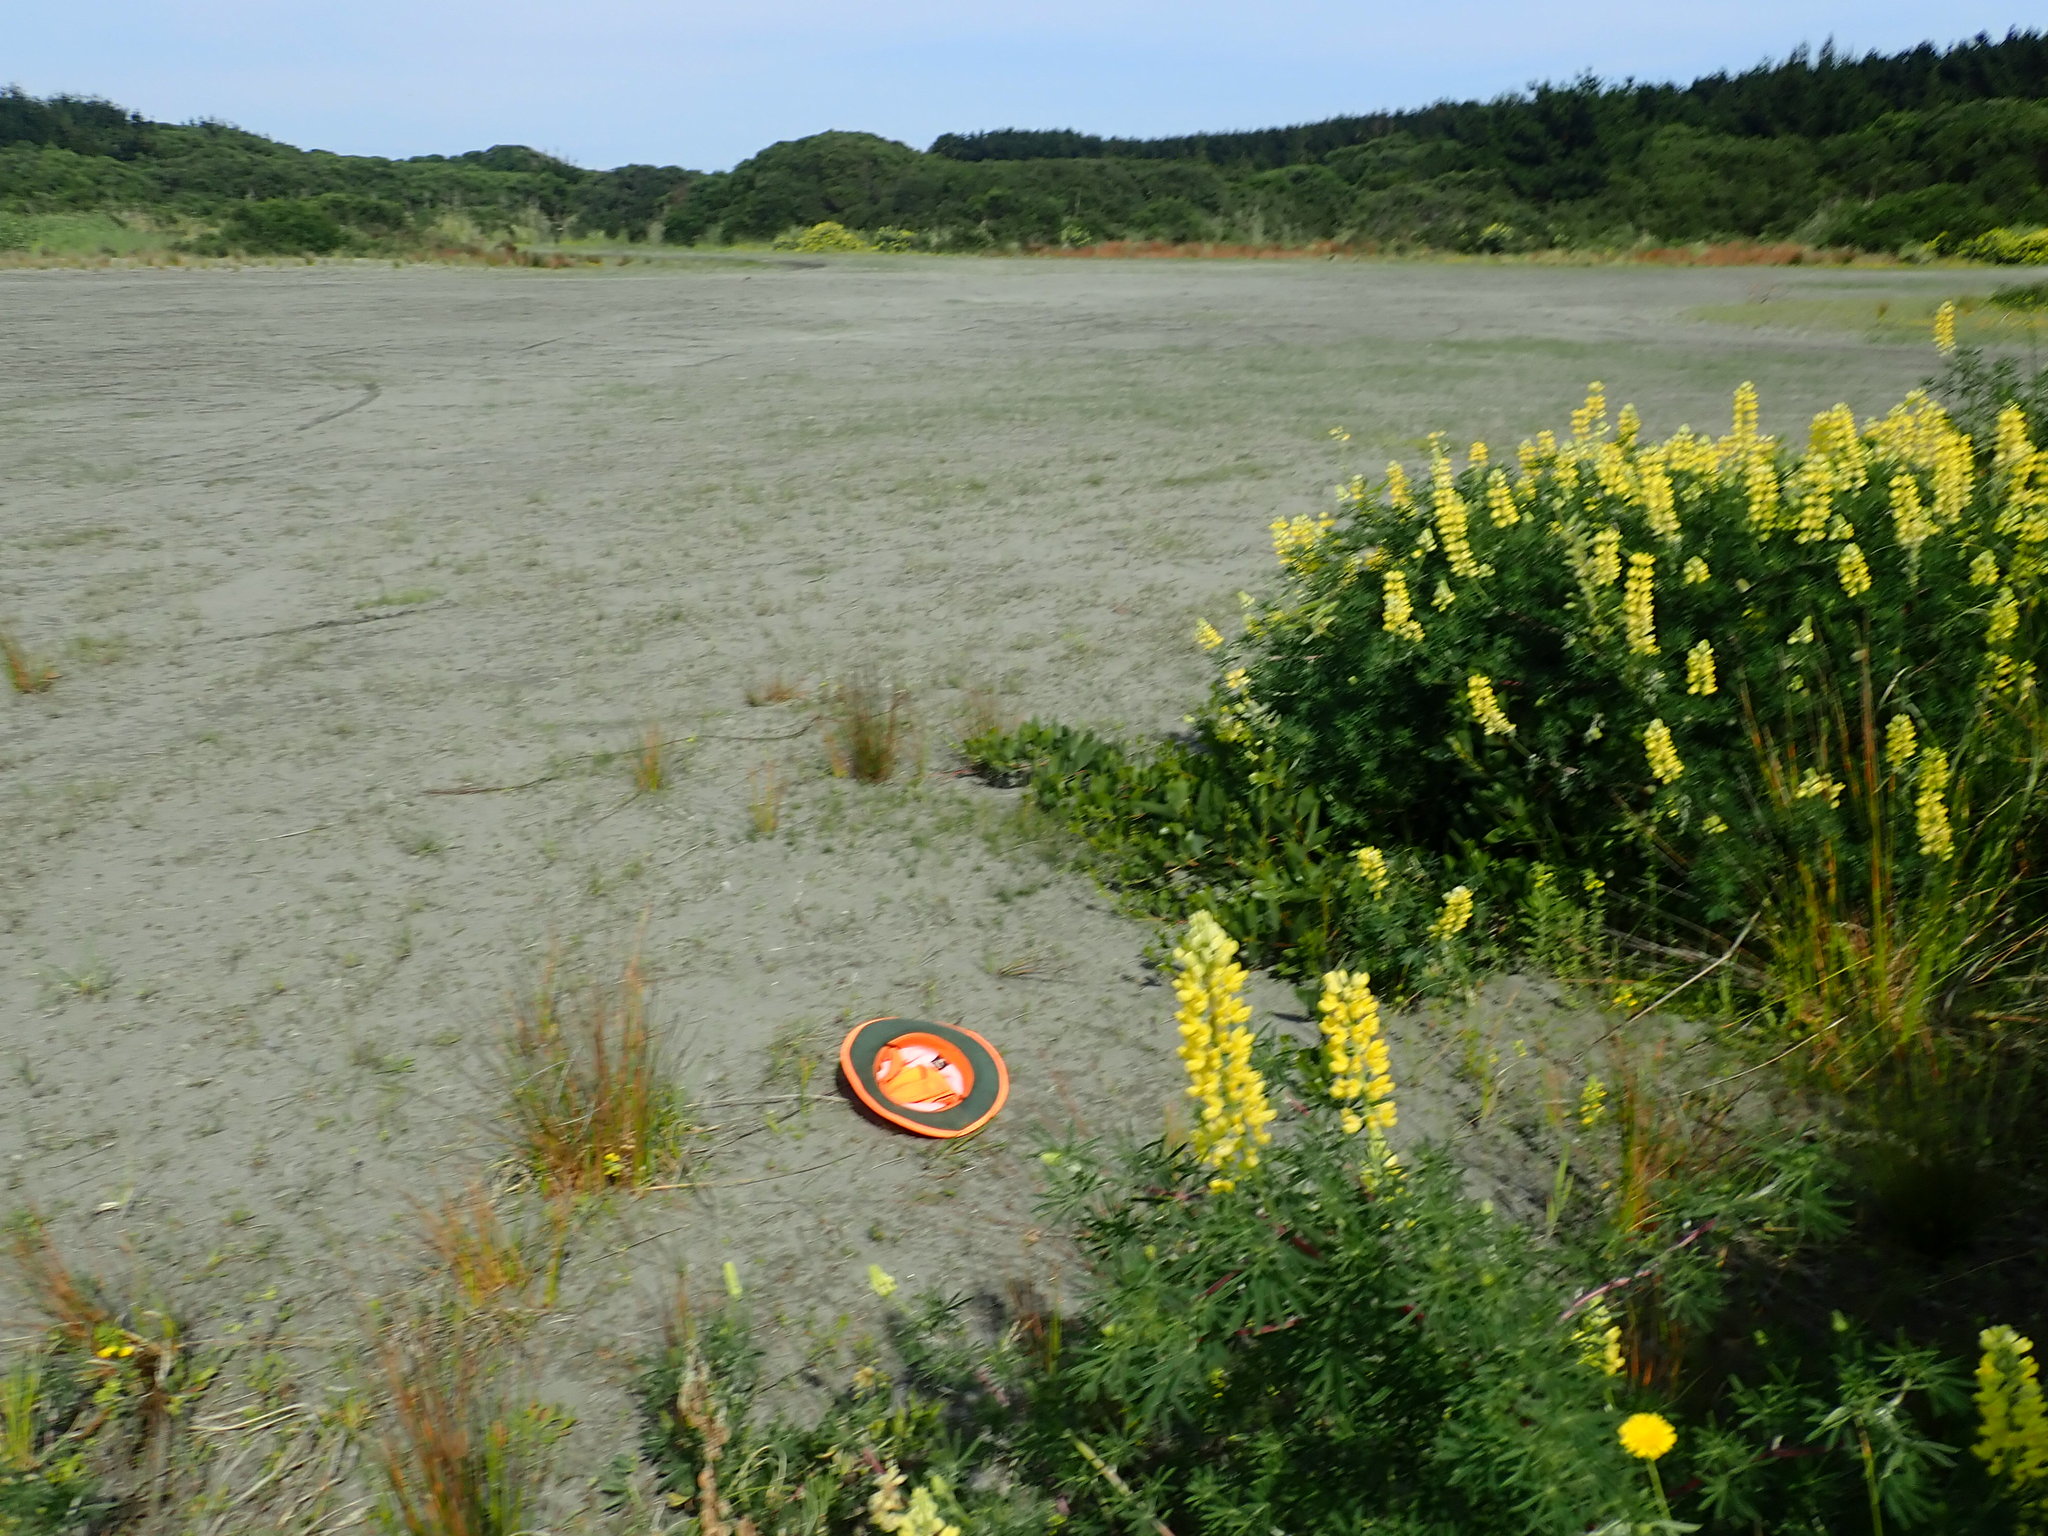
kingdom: Plantae
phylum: Tracheophyta
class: Liliopsida
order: Poales
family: Cyperaceae
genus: Isolepis
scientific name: Isolepis basilaris
